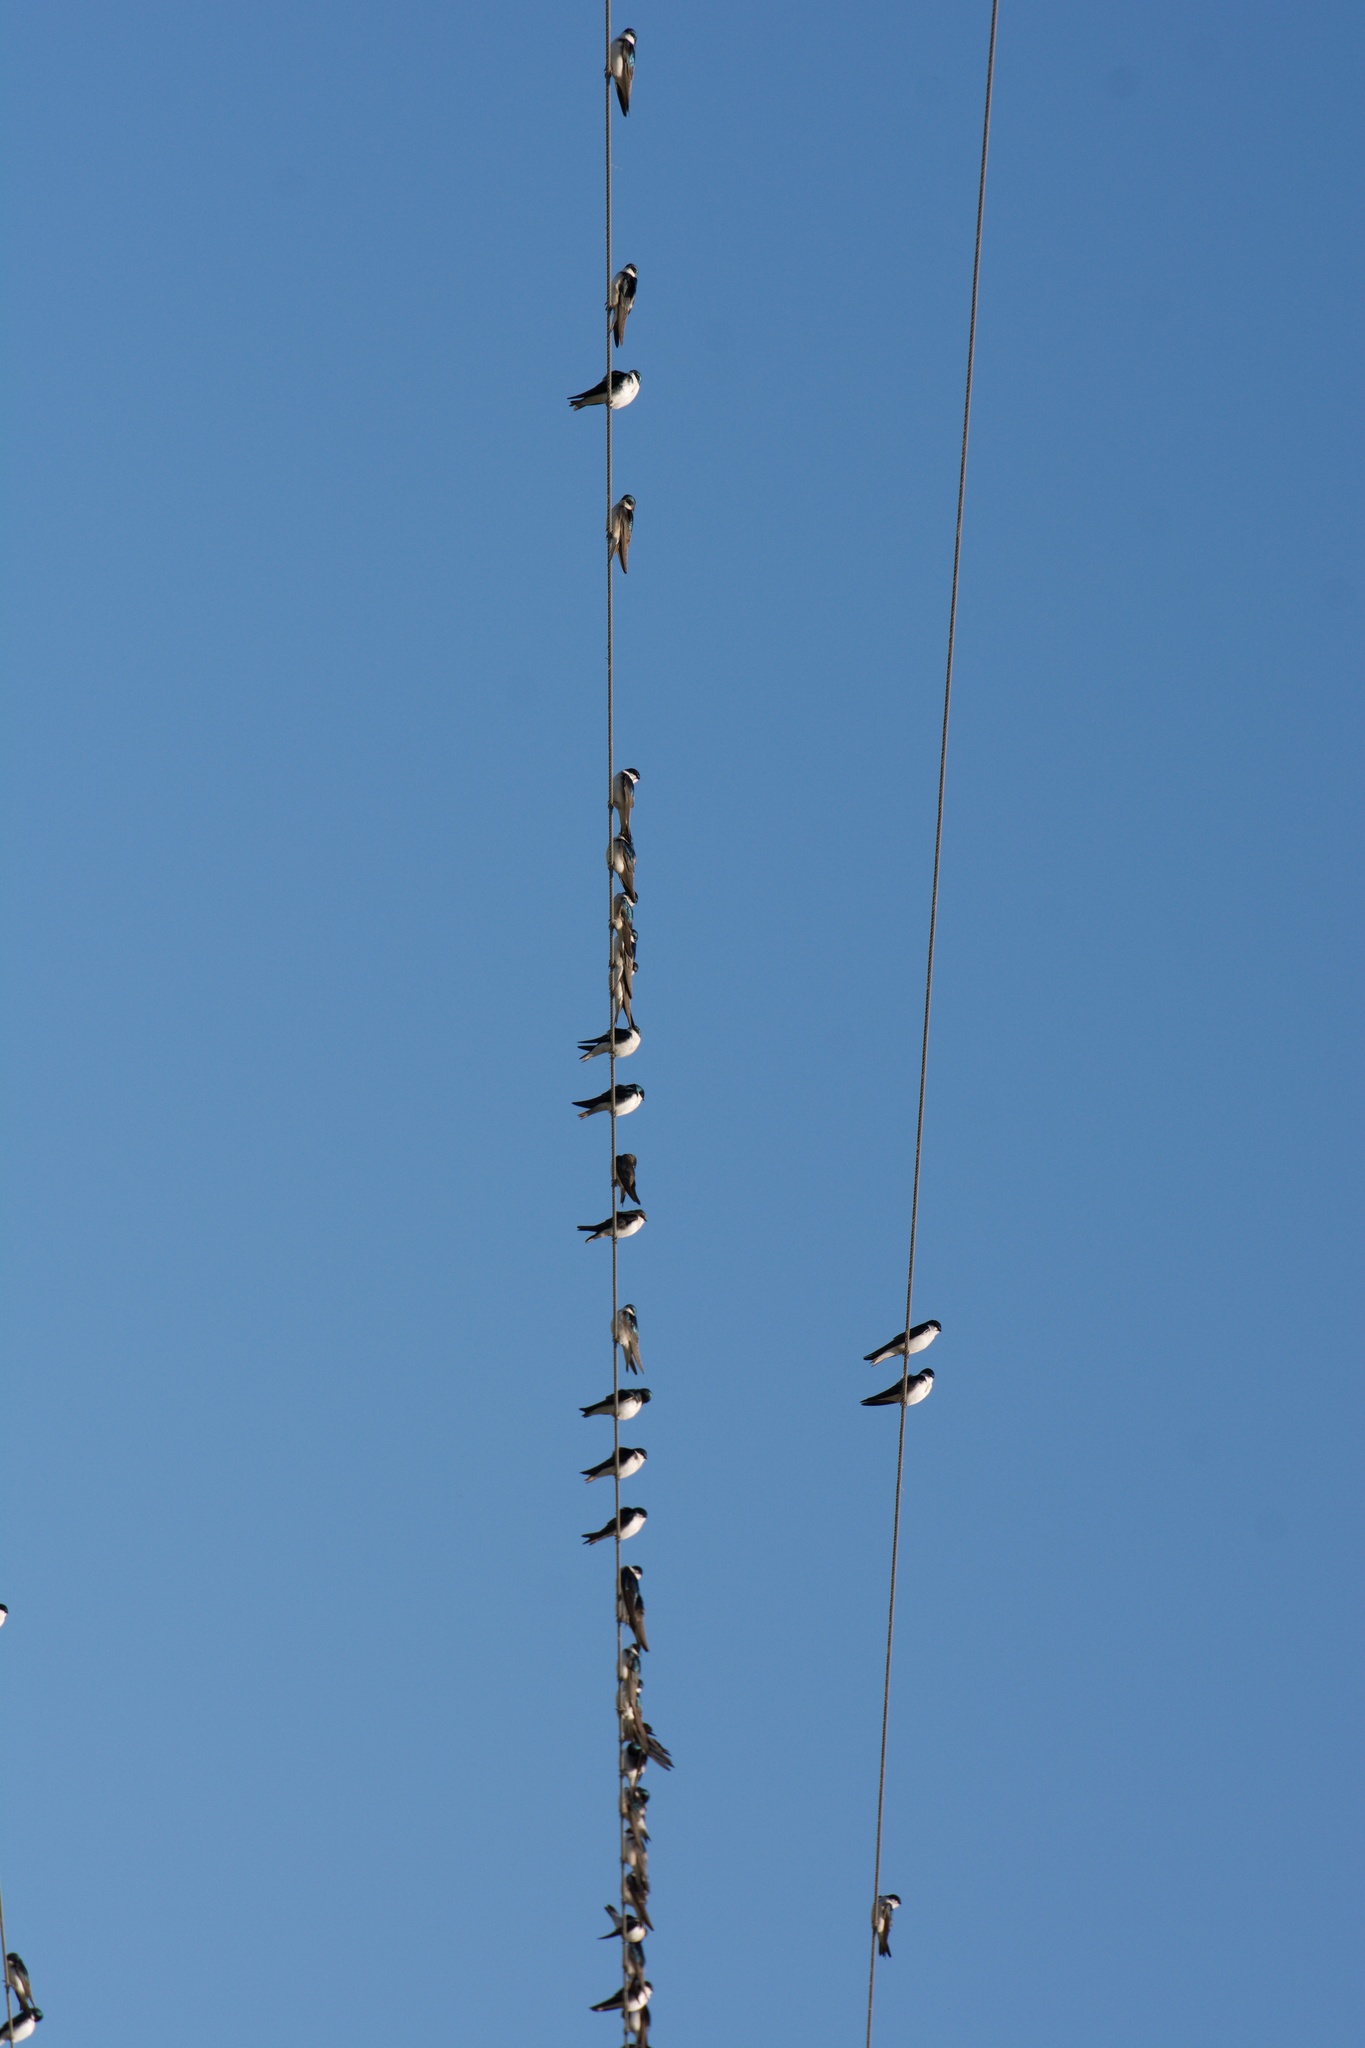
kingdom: Animalia
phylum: Chordata
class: Aves
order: Passeriformes
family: Hirundinidae
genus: Tachycineta
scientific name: Tachycineta bicolor
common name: Tree swallow
